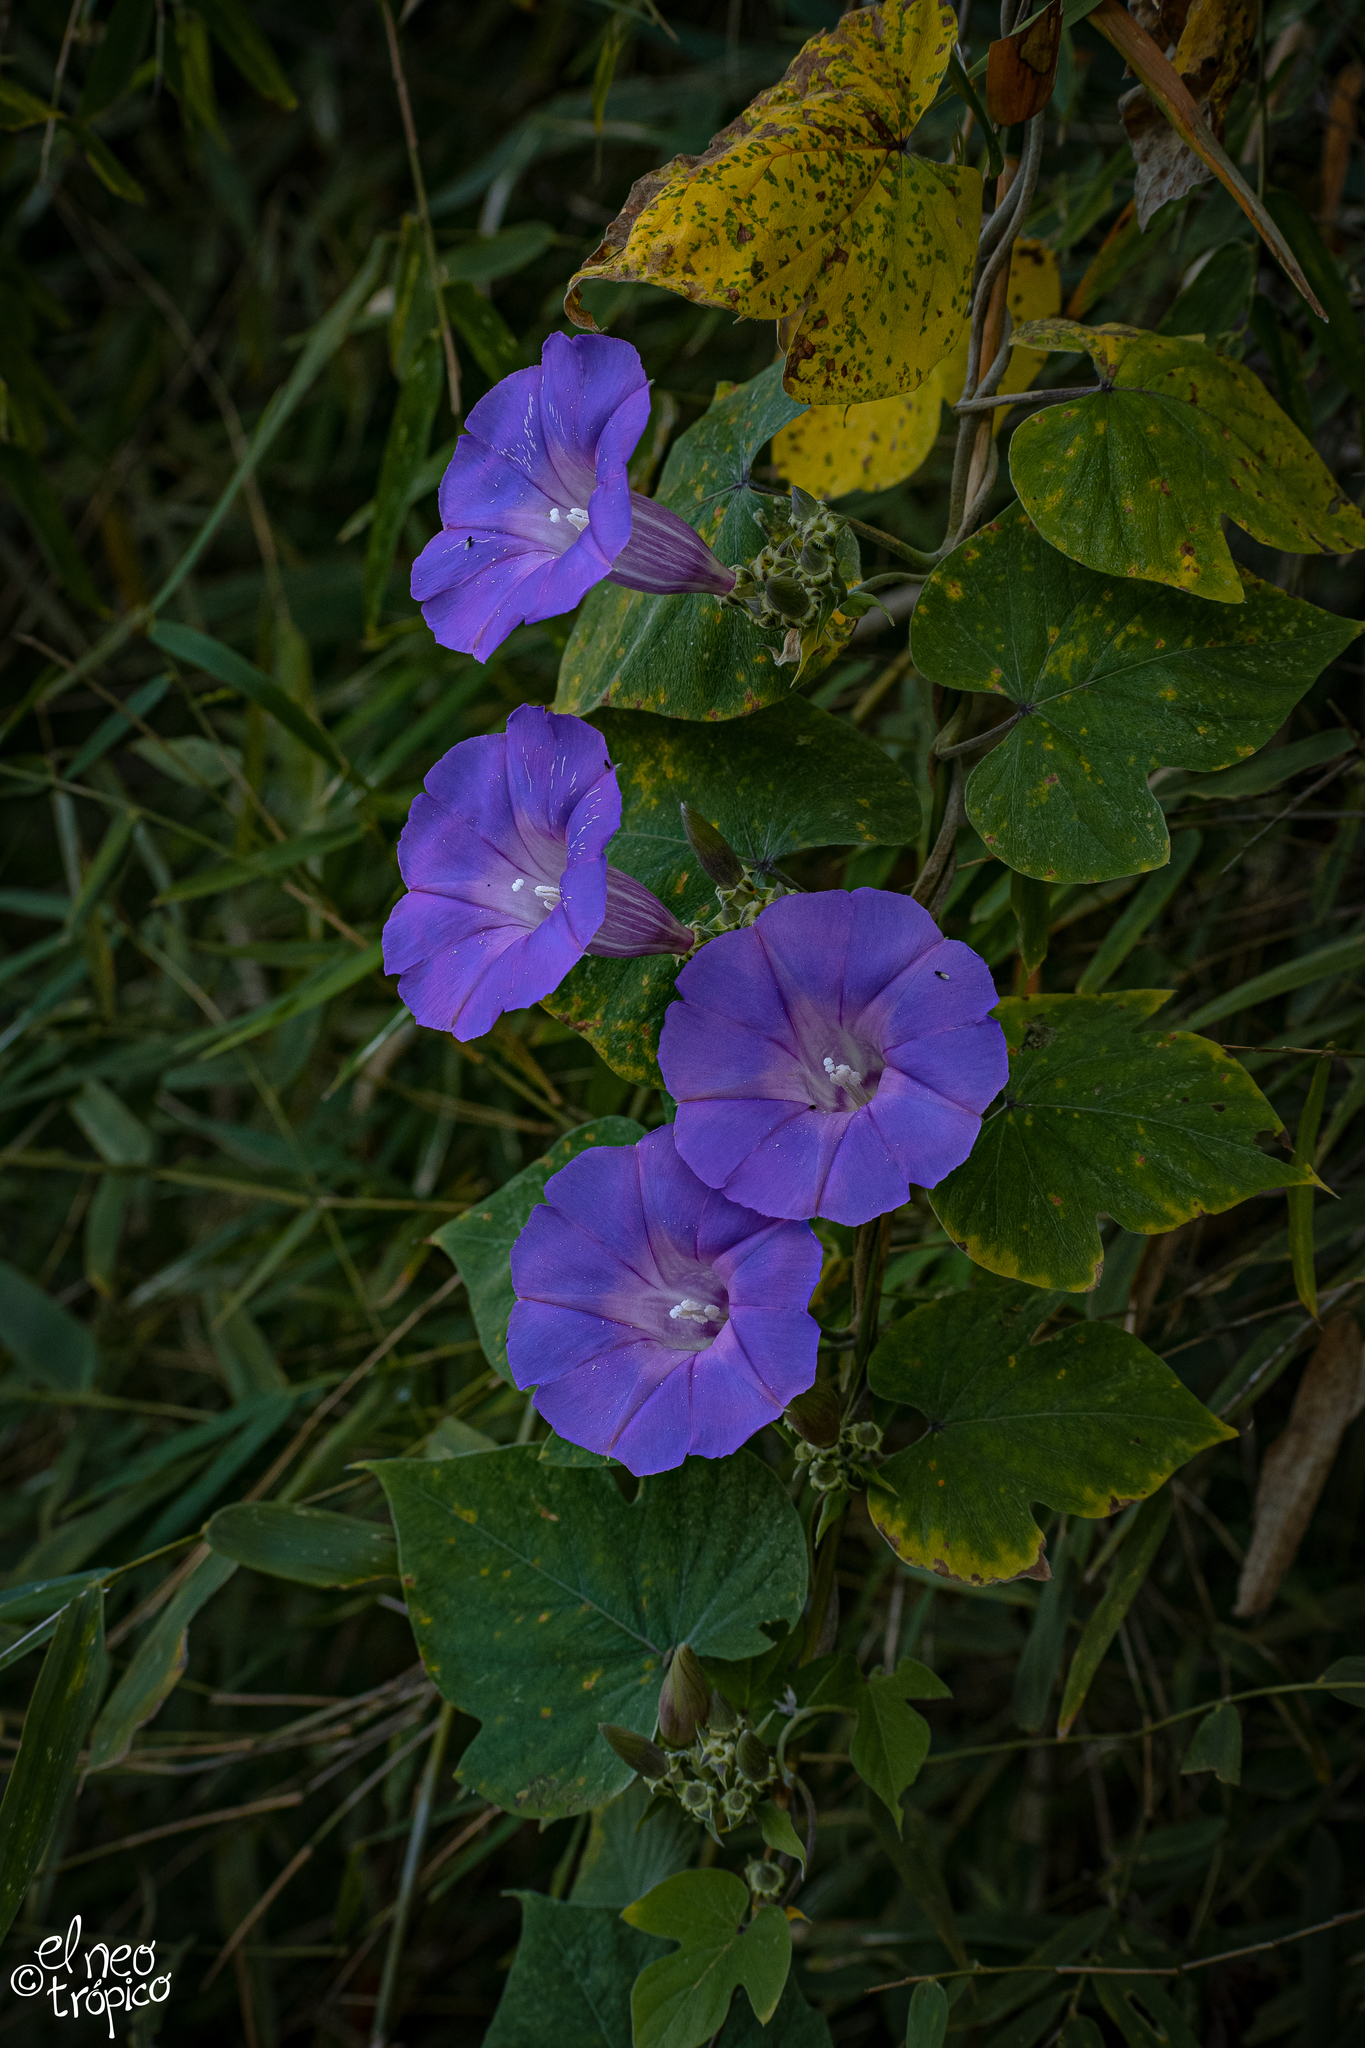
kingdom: Plantae
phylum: Tracheophyta
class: Magnoliopsida
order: Solanales
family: Convolvulaceae
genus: Ipomoea
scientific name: Ipomoea leucotricha
